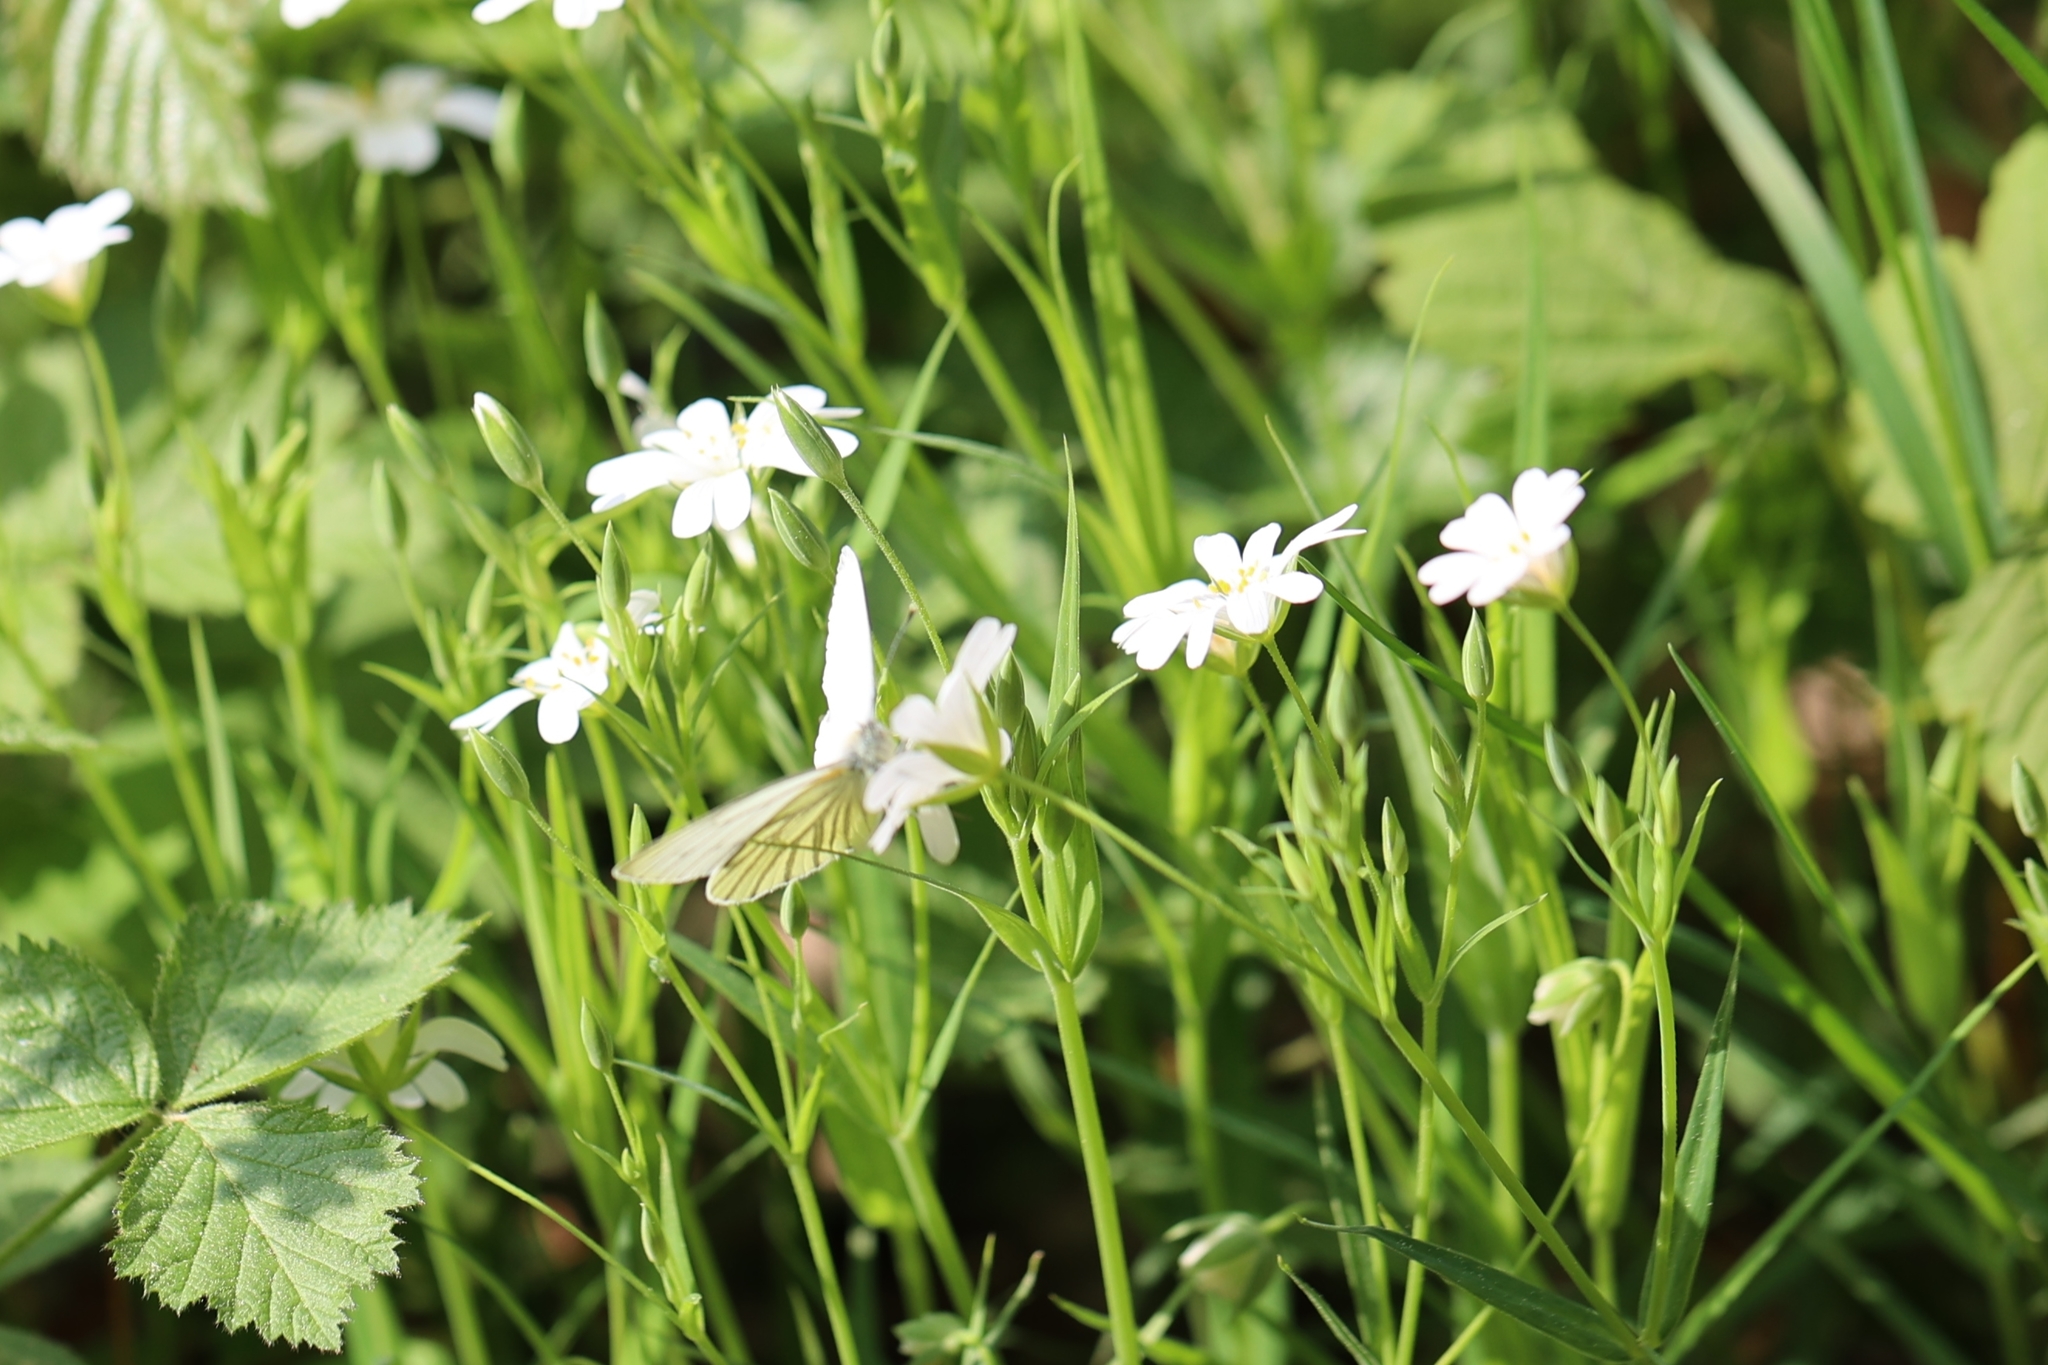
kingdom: Animalia
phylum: Arthropoda
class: Insecta
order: Lepidoptera
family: Pieridae
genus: Pieris
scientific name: Pieris napi
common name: Green-veined white
